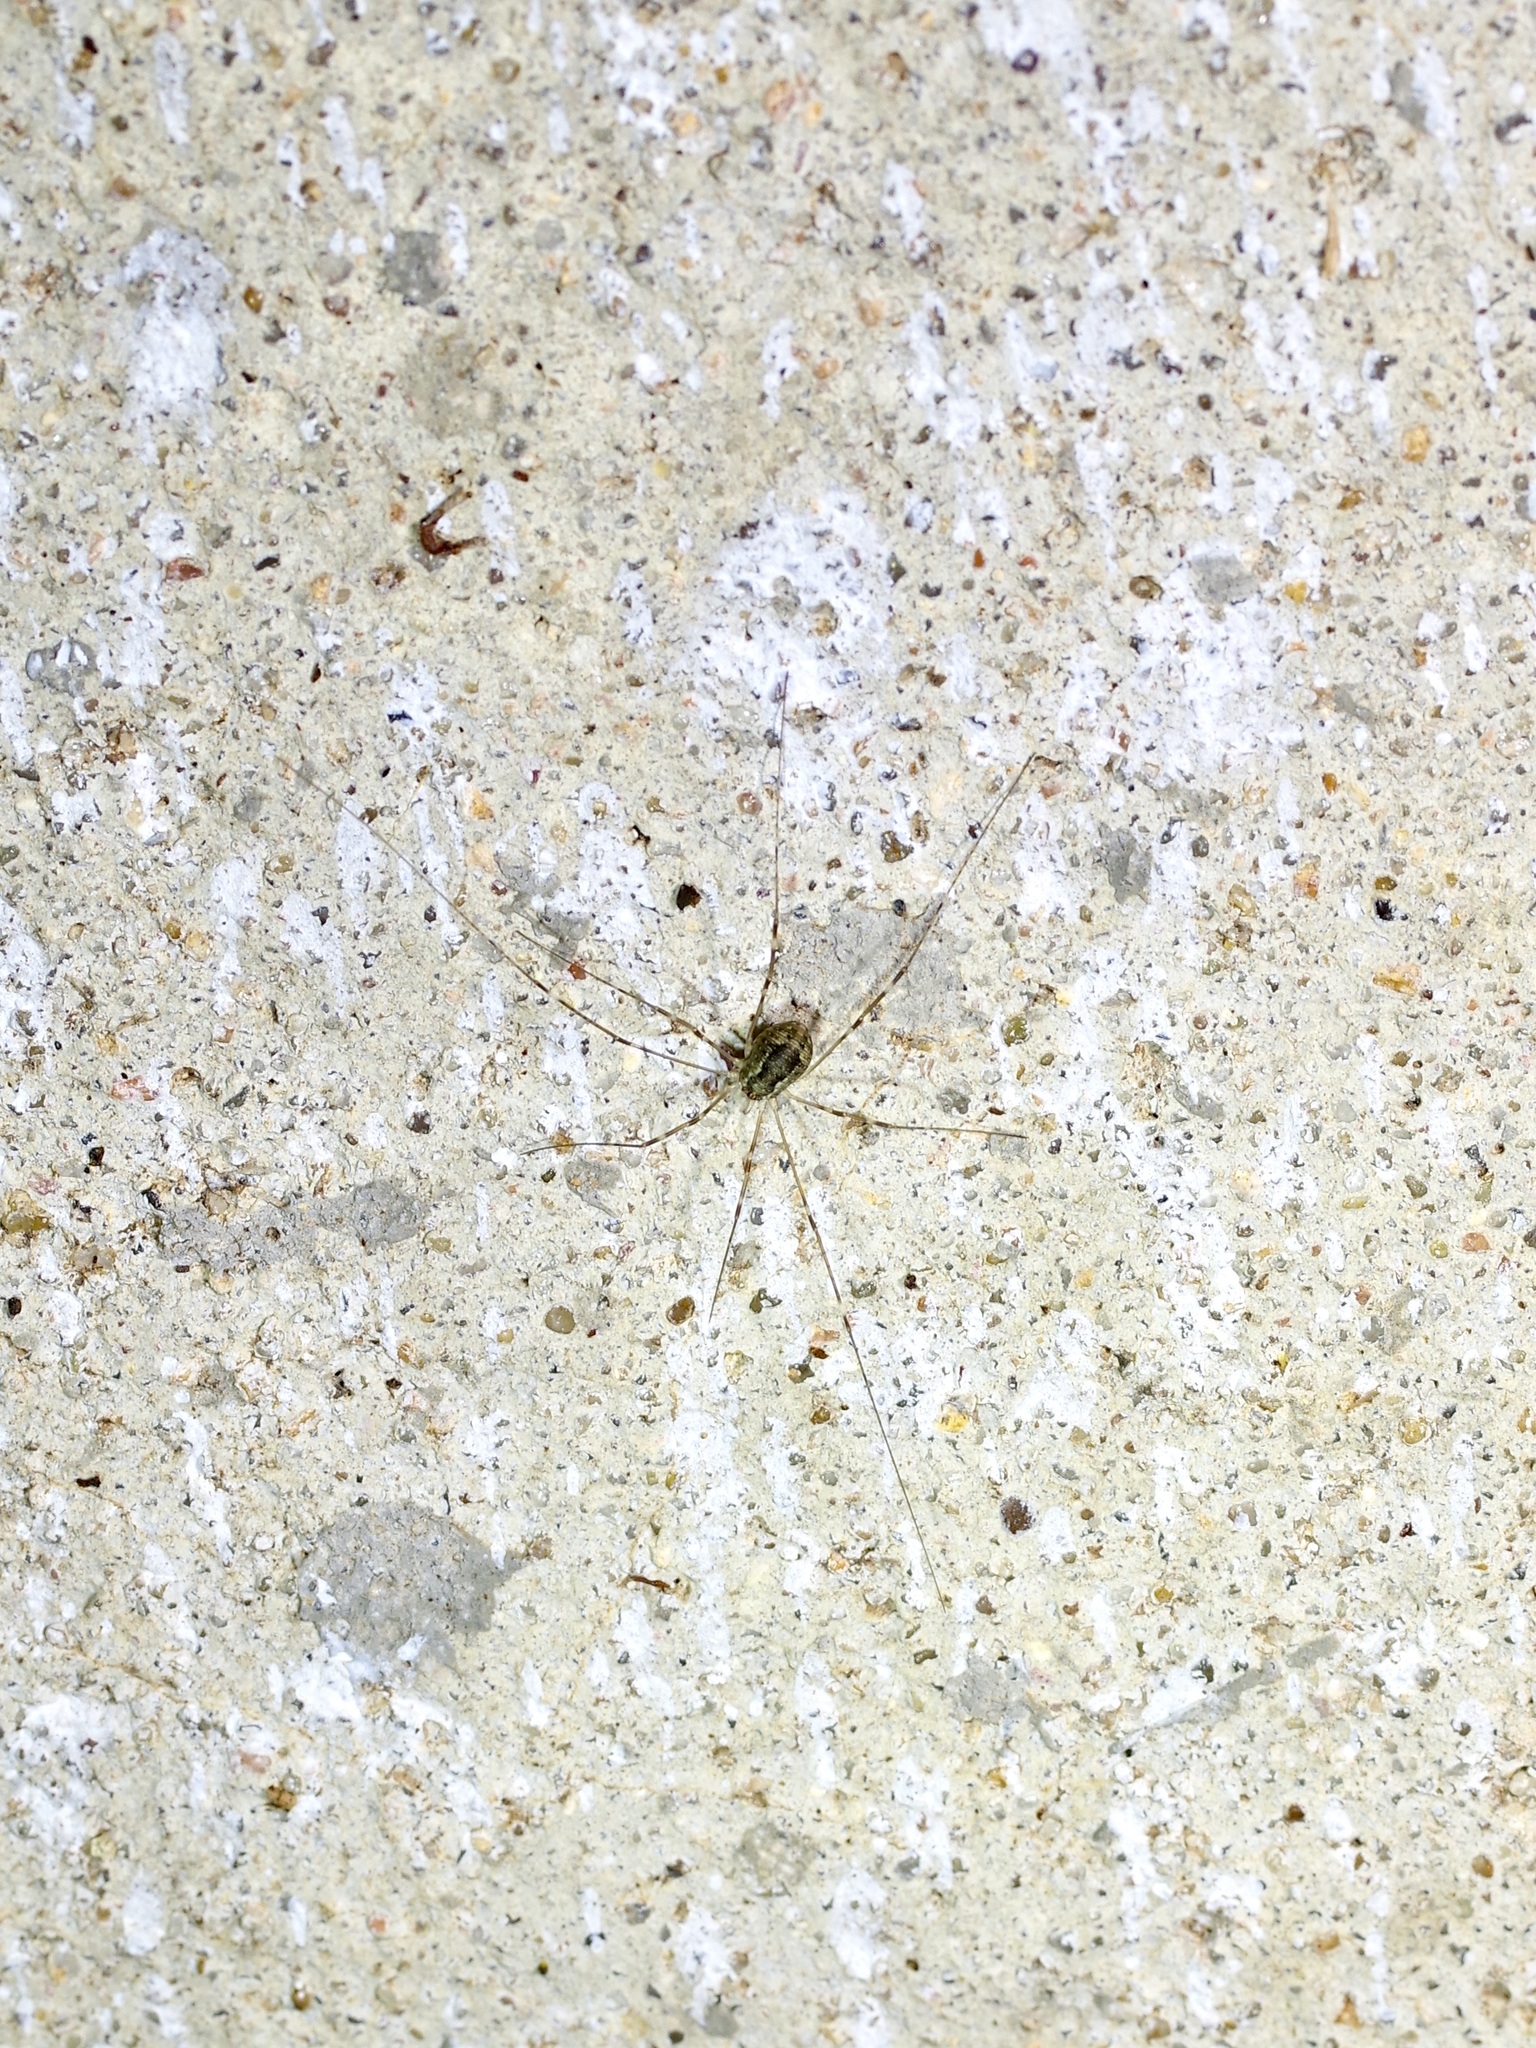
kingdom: Animalia
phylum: Arthropoda
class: Arachnida
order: Opiliones
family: Sclerosomatidae
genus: Leiobunum
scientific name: Leiobunum townsendi
